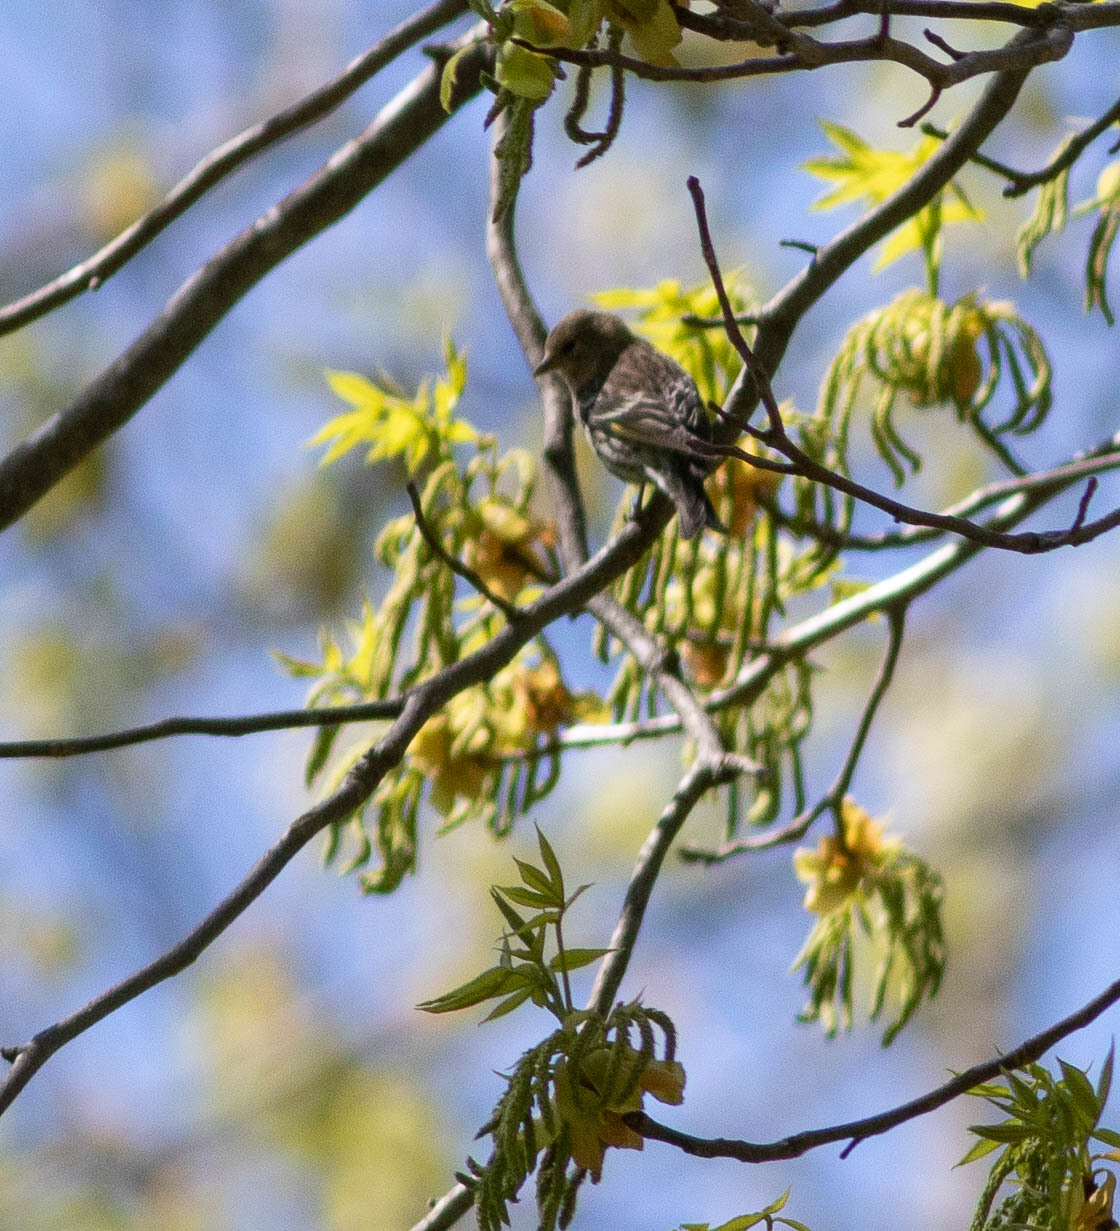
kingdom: Animalia
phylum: Chordata
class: Aves
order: Passeriformes
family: Fringillidae
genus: Spinus
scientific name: Spinus pinus
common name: Pine siskin
